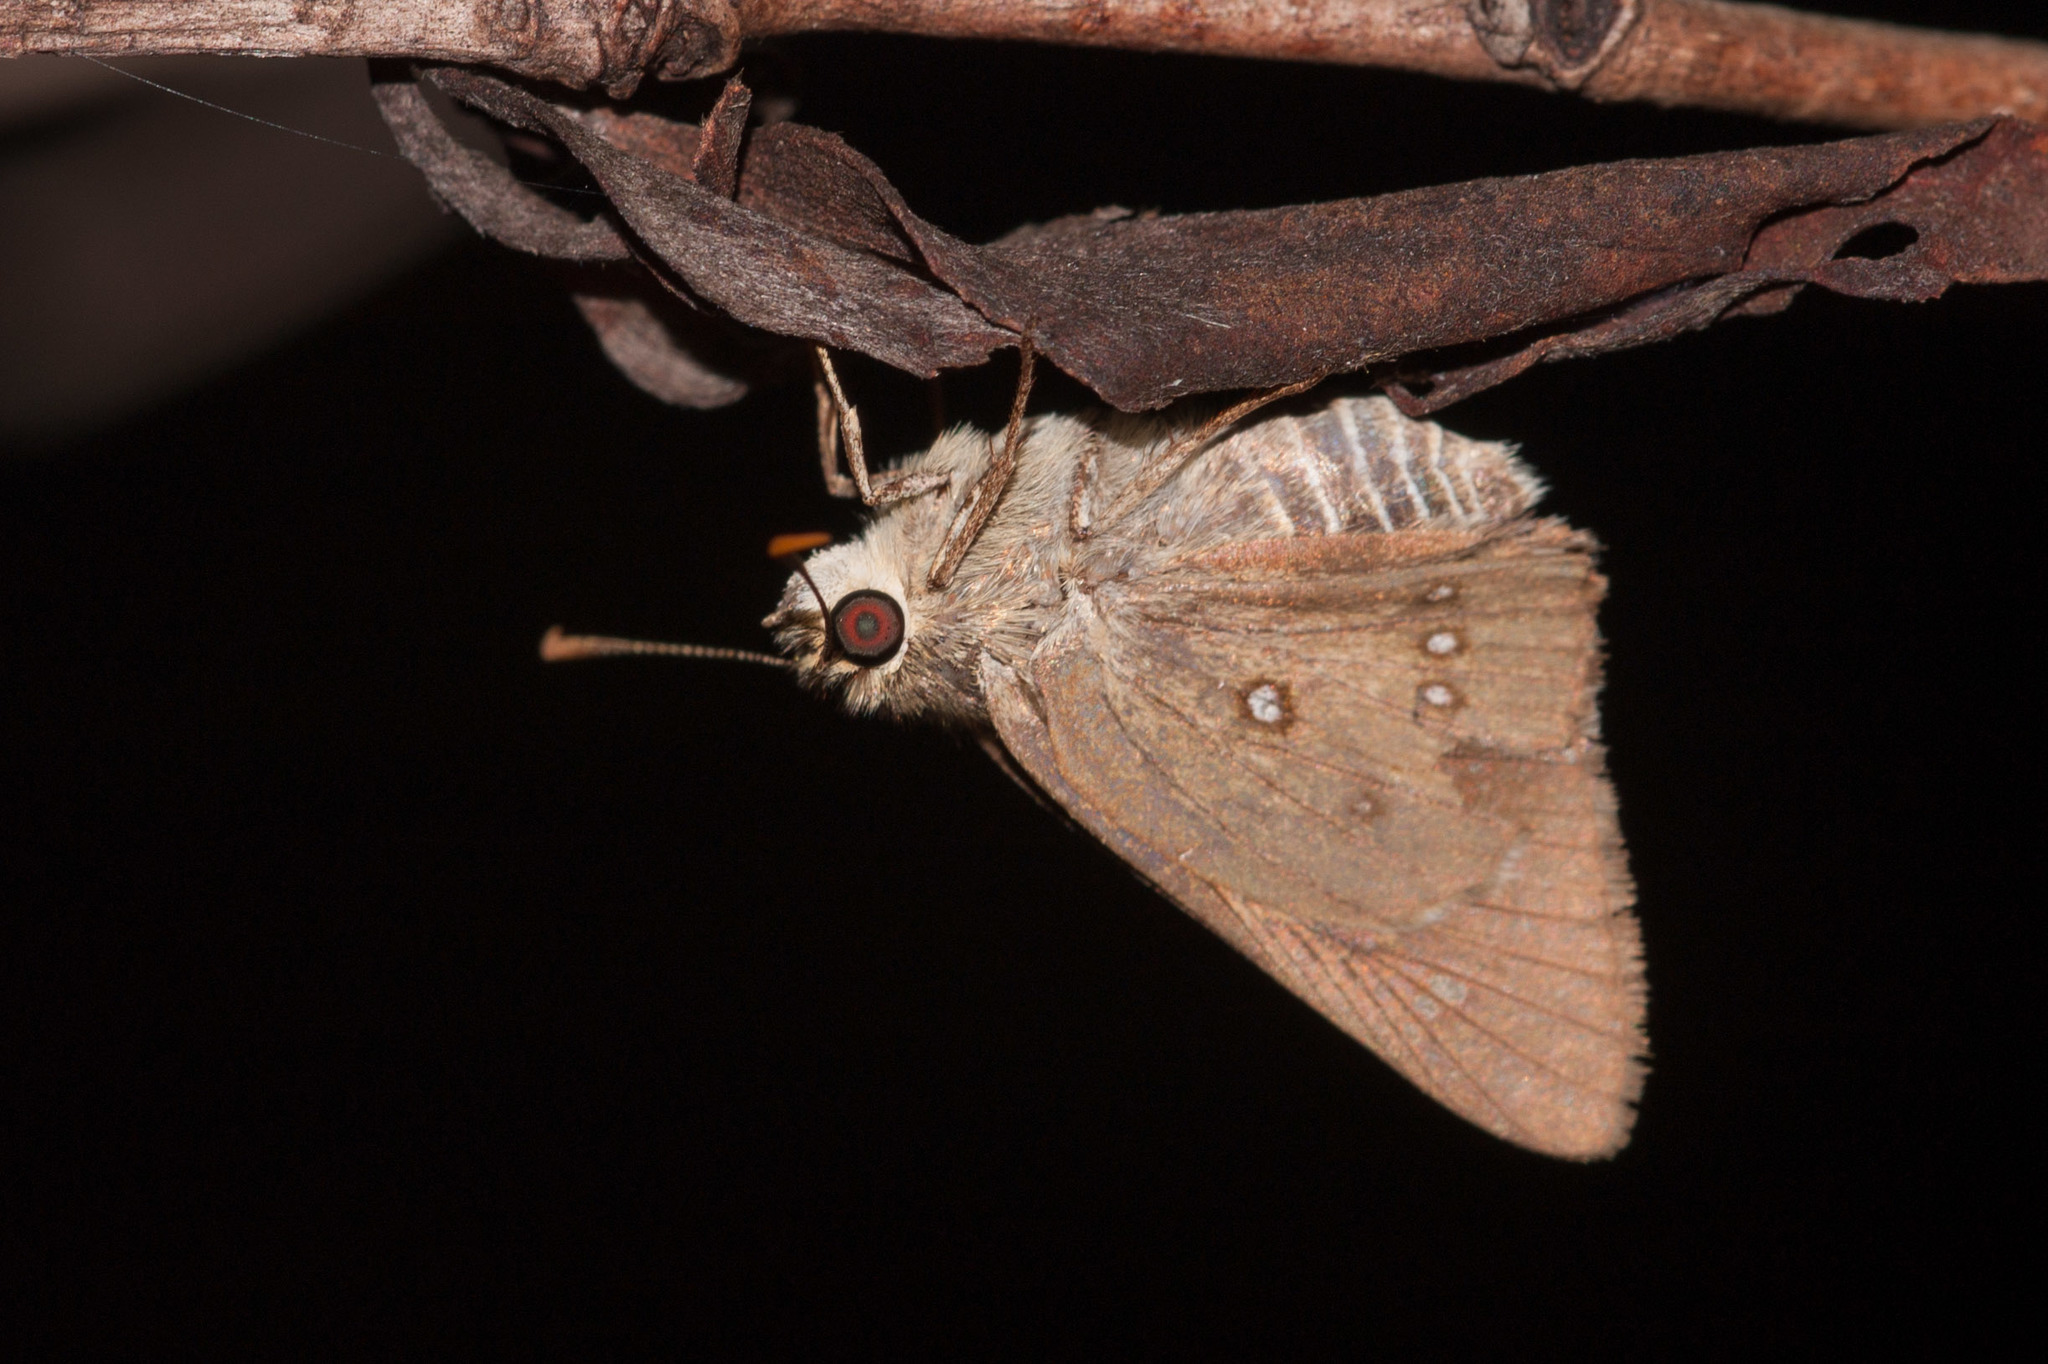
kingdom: Animalia
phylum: Arthropoda
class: Insecta
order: Lepidoptera
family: Hesperiidae
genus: Trapezites
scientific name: Trapezites iacchus
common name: Brown ochre
